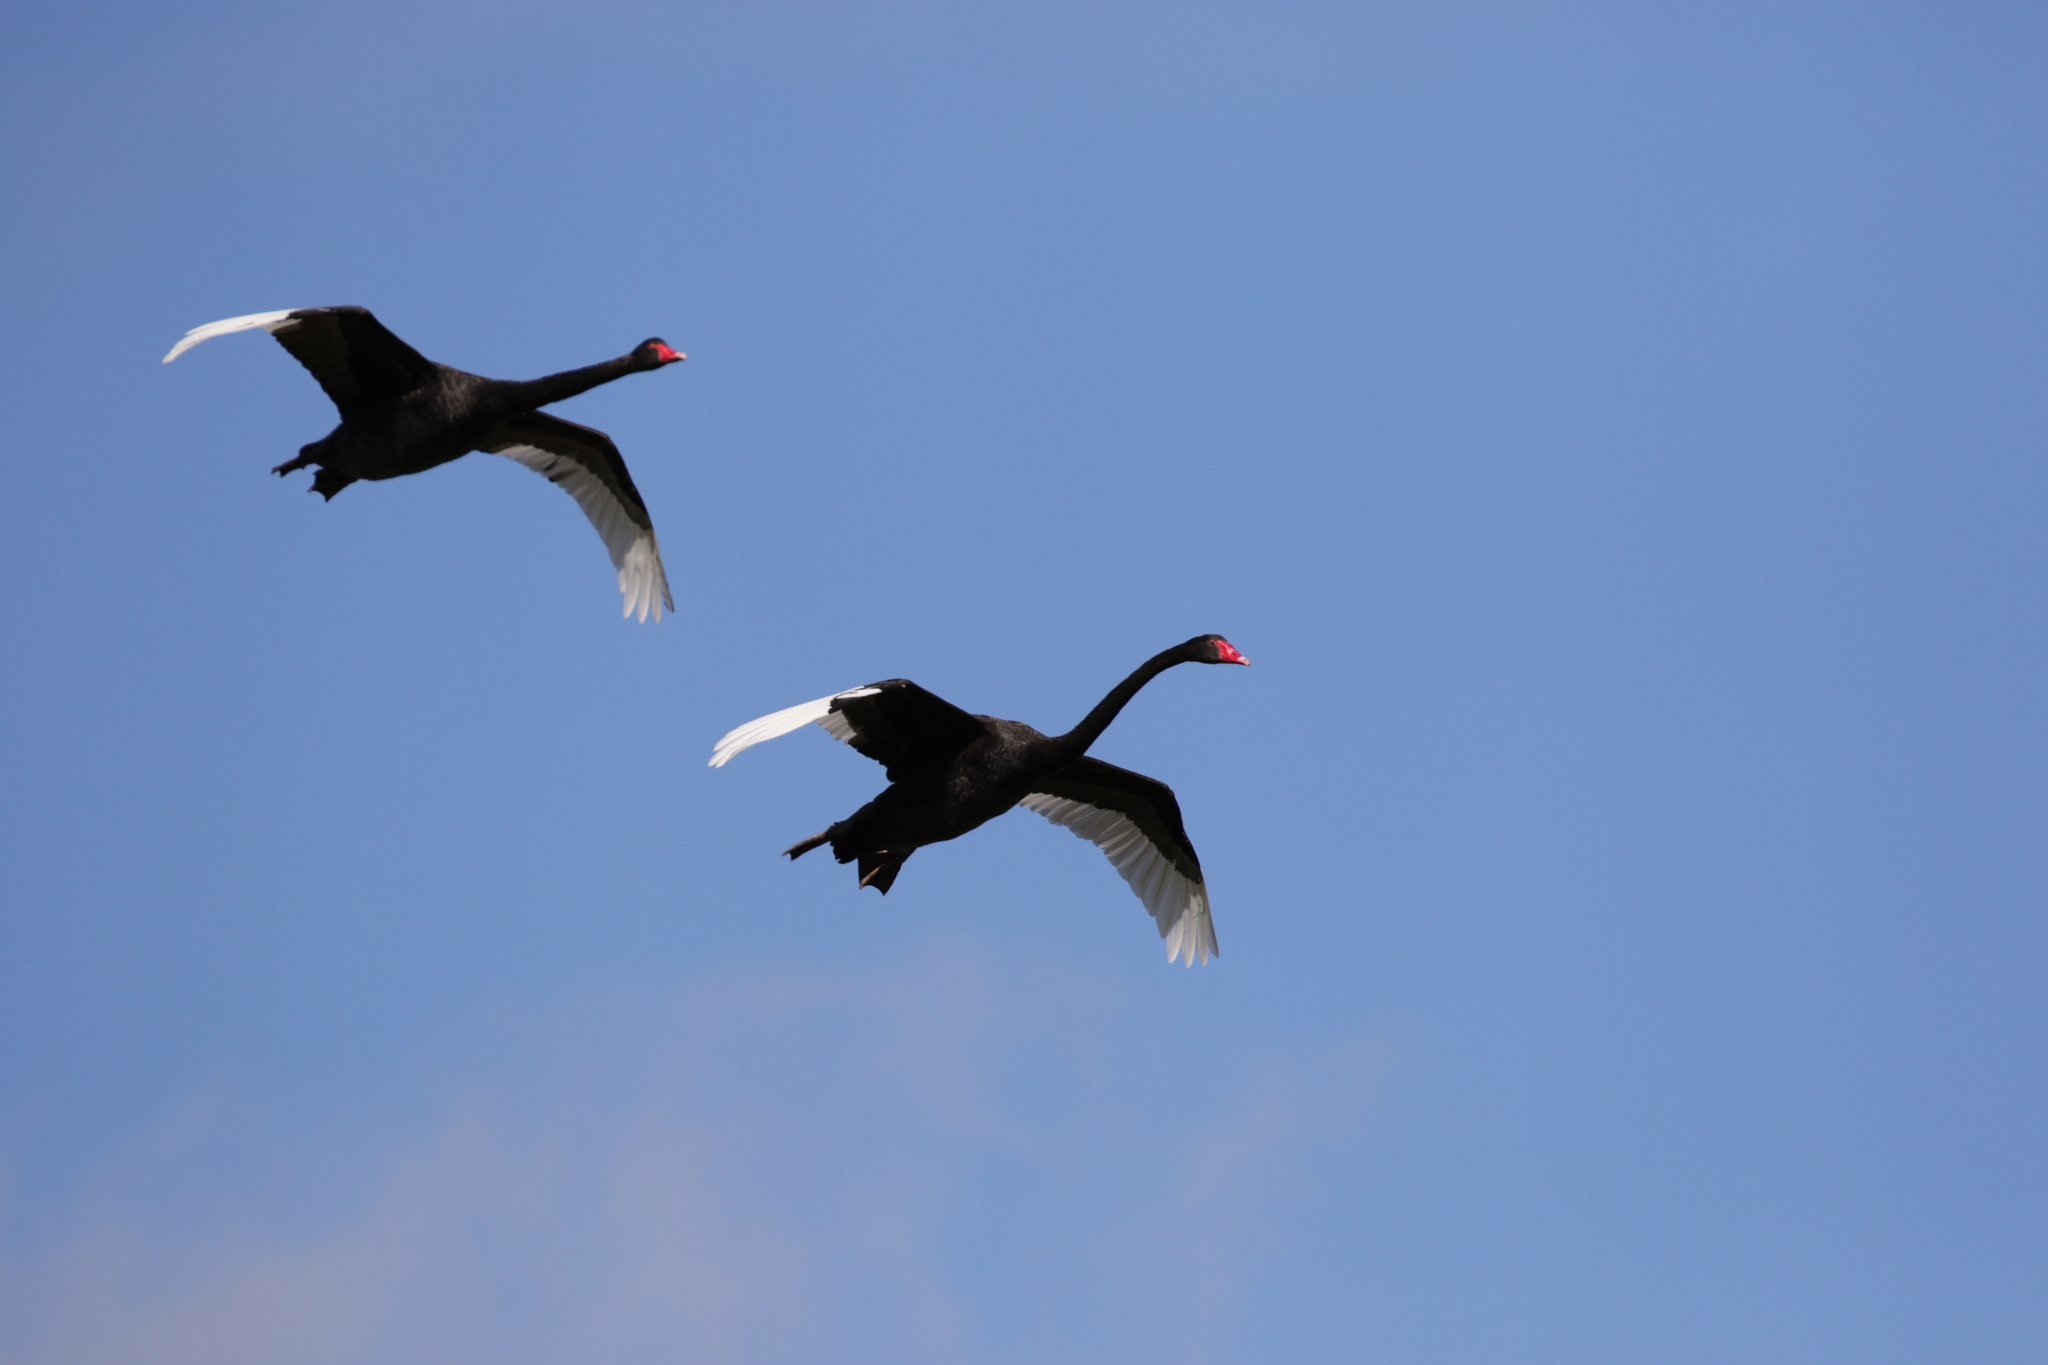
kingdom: Animalia
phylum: Chordata
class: Aves
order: Anseriformes
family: Anatidae
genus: Cygnus
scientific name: Cygnus atratus
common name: Black swan
